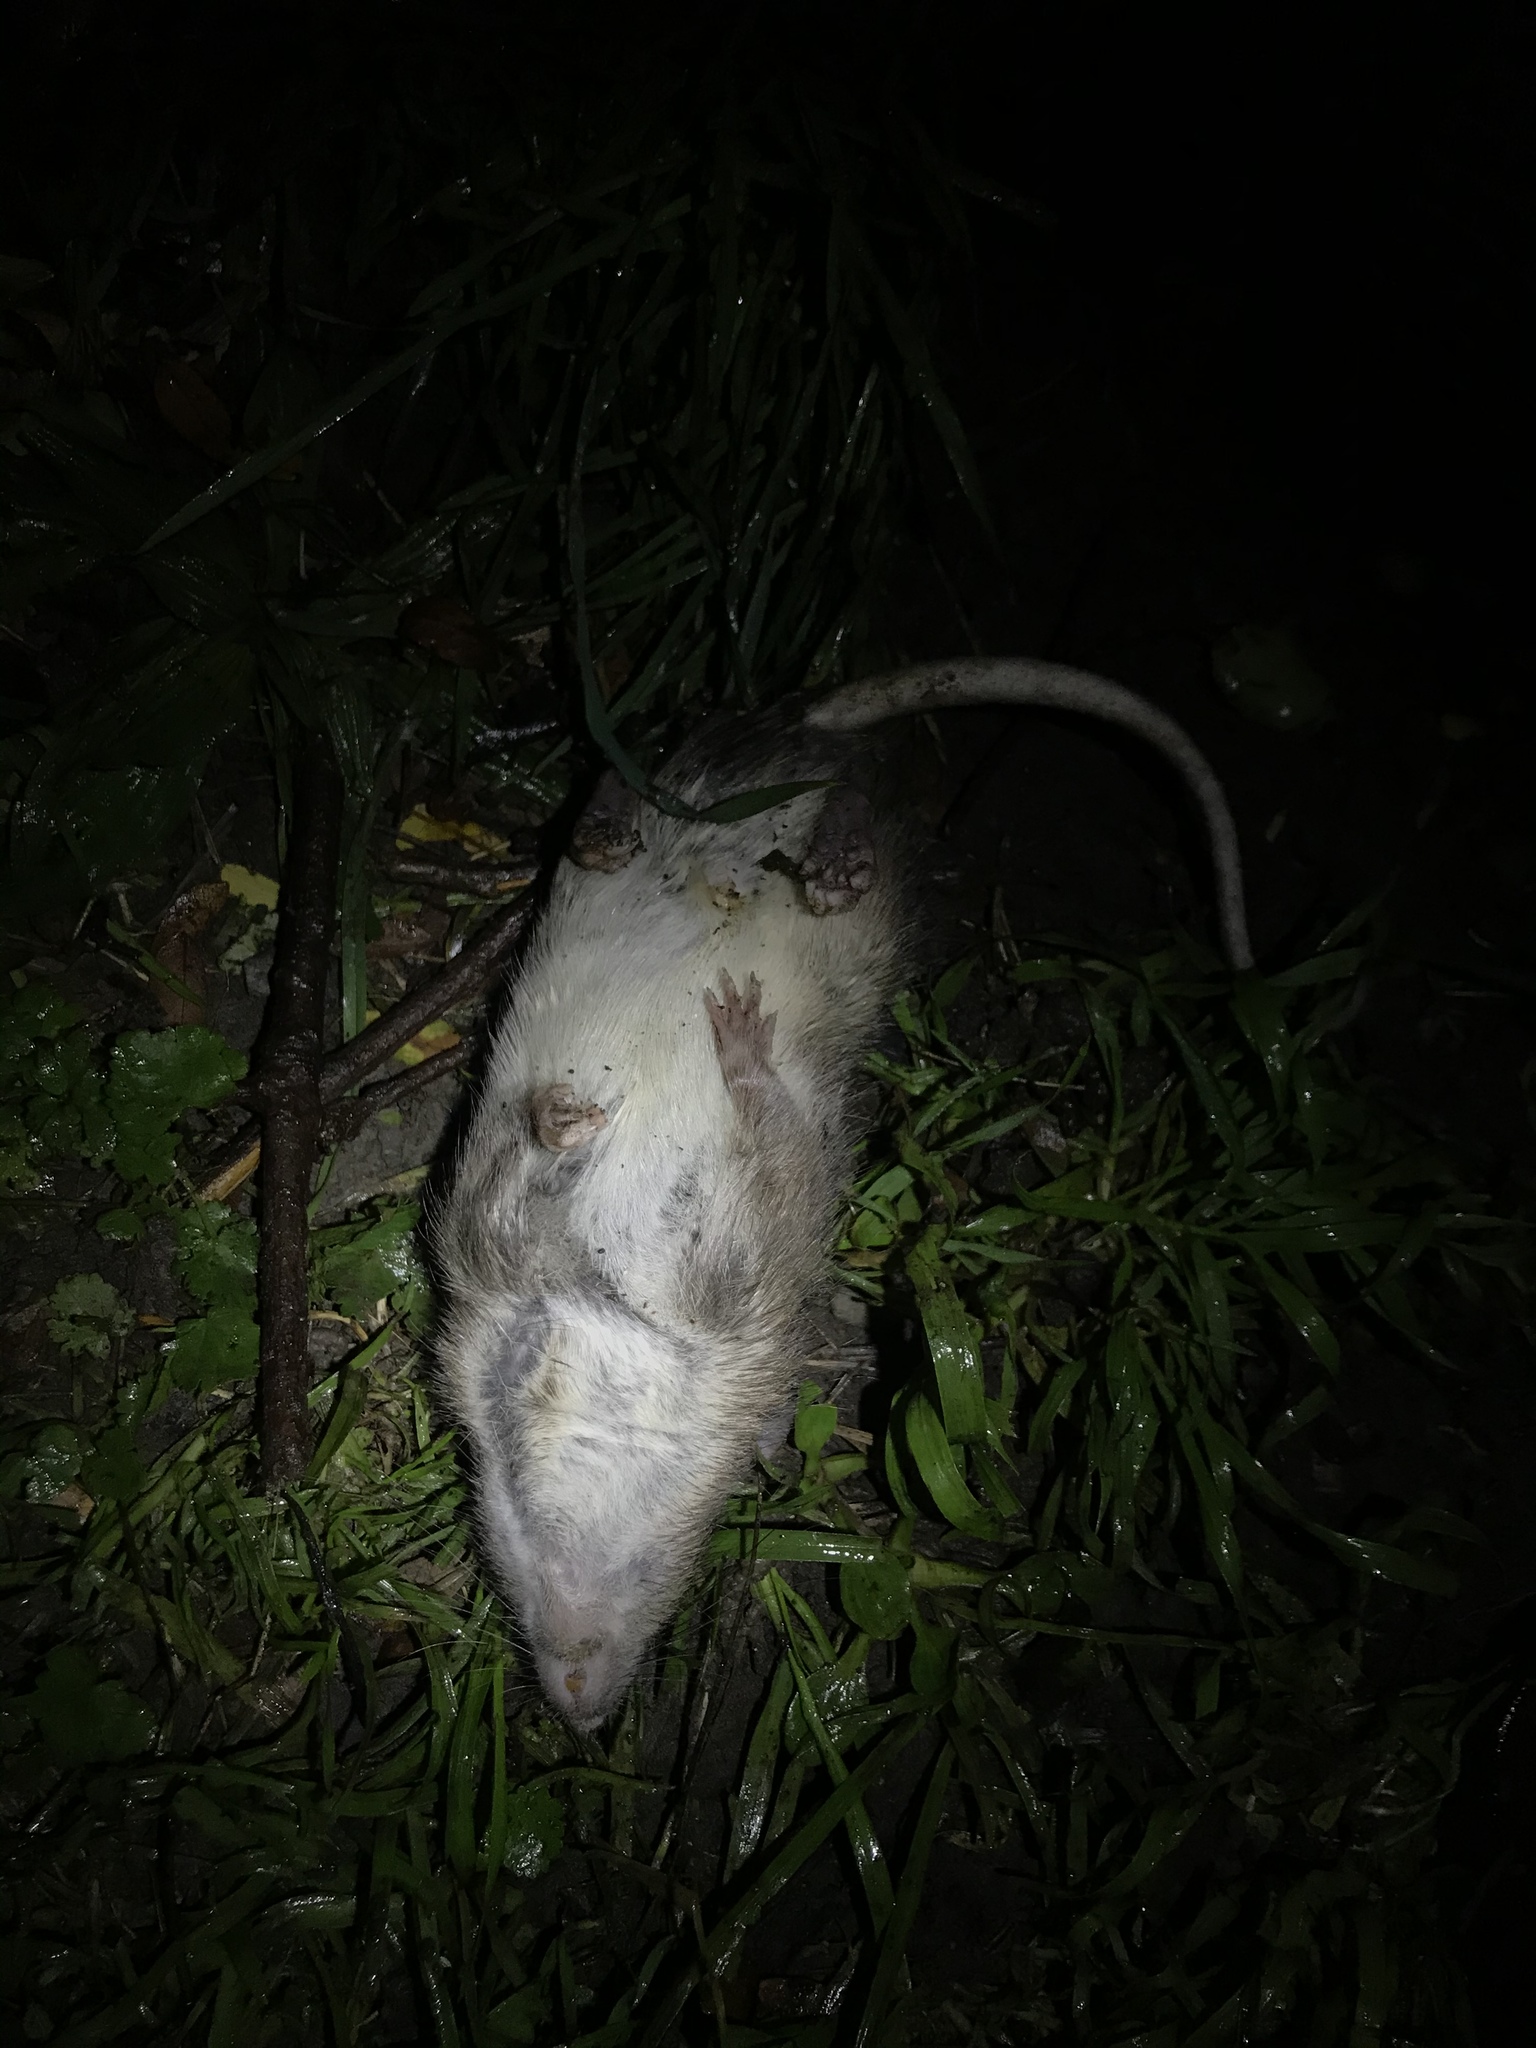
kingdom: Animalia
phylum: Chordata
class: Mammalia
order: Rodentia
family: Muridae
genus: Rattus
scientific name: Rattus norvegicus
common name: Brown rat
